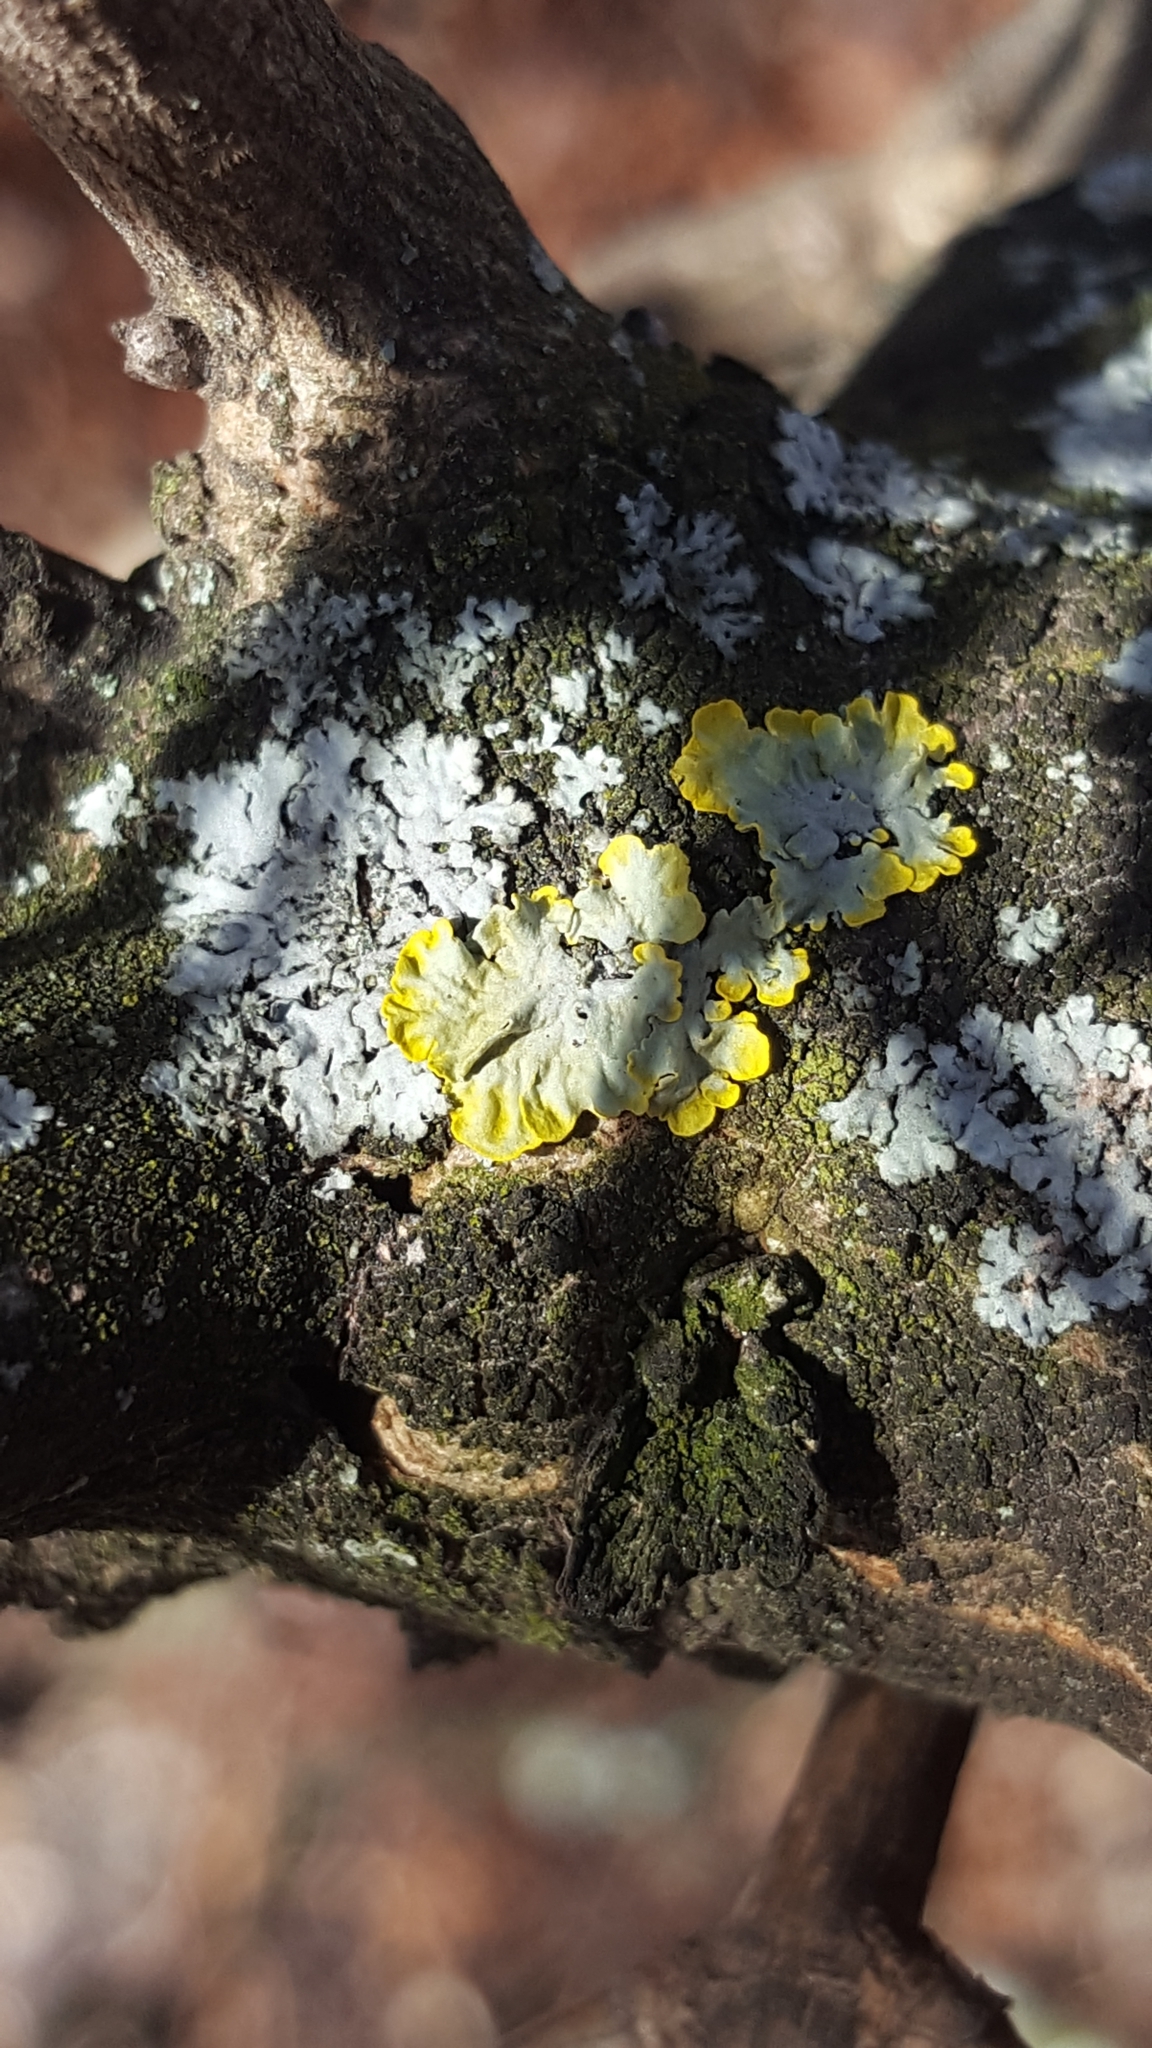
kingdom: Fungi
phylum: Ascomycota
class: Lecanoromycetes
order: Teloschistales
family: Teloschistaceae
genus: Xanthoria
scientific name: Xanthoria parietina
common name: Common orange lichen
